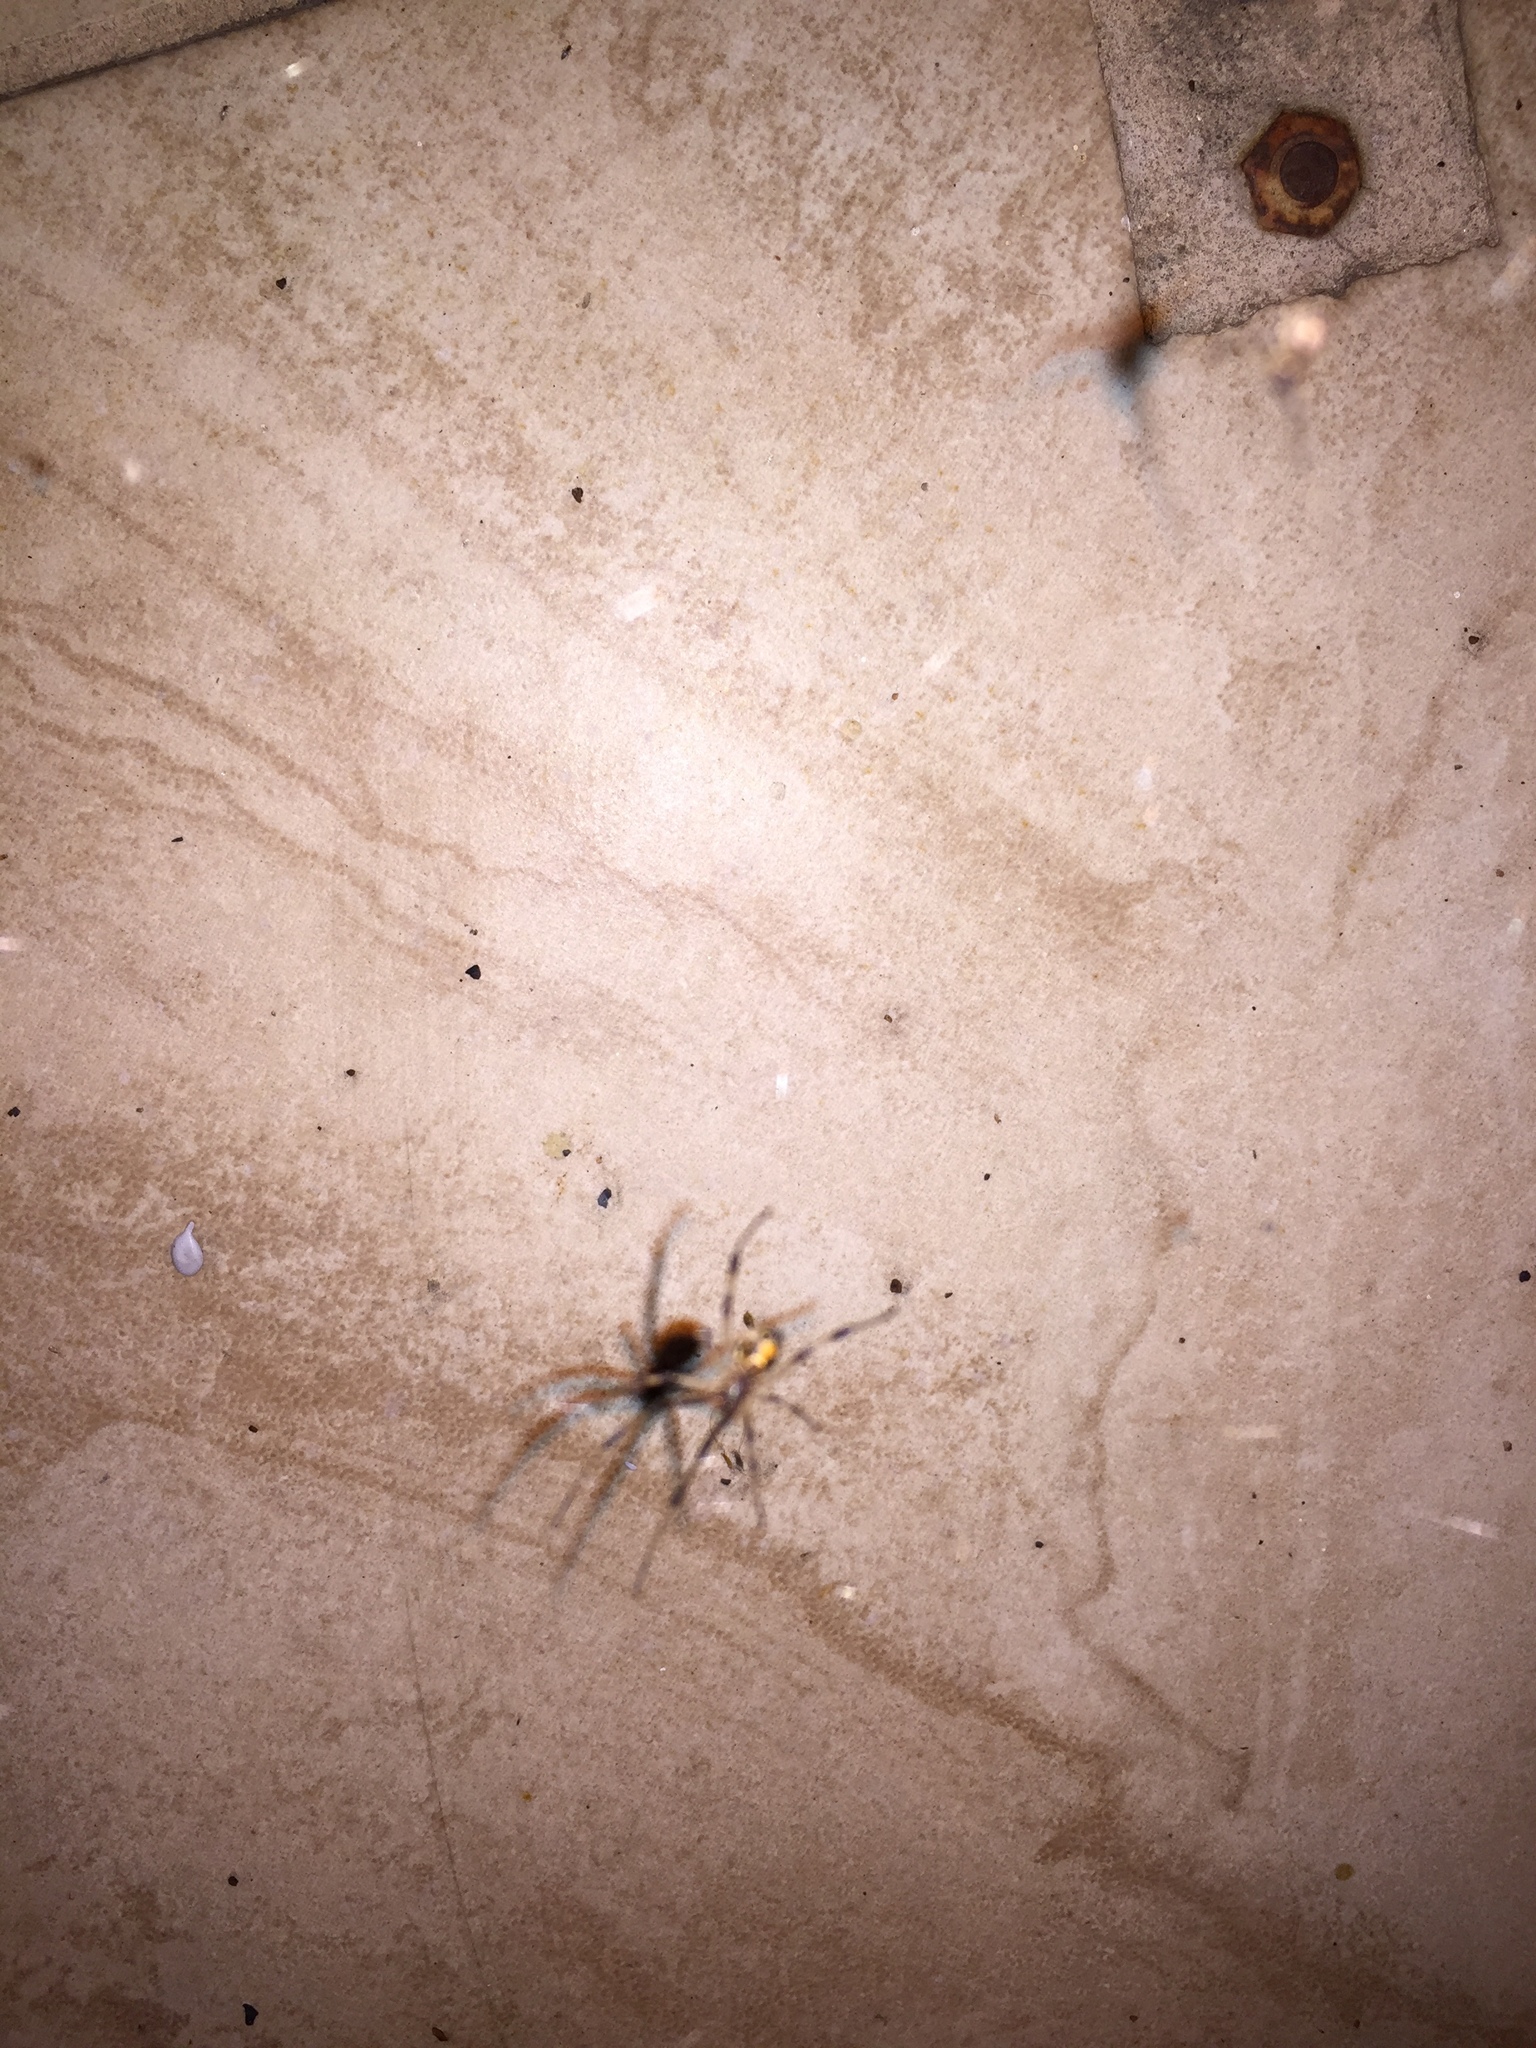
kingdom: Animalia
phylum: Arthropoda
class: Arachnida
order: Araneae
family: Theridiidae
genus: Latrodectus
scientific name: Latrodectus geometricus
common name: Brown widow spider
